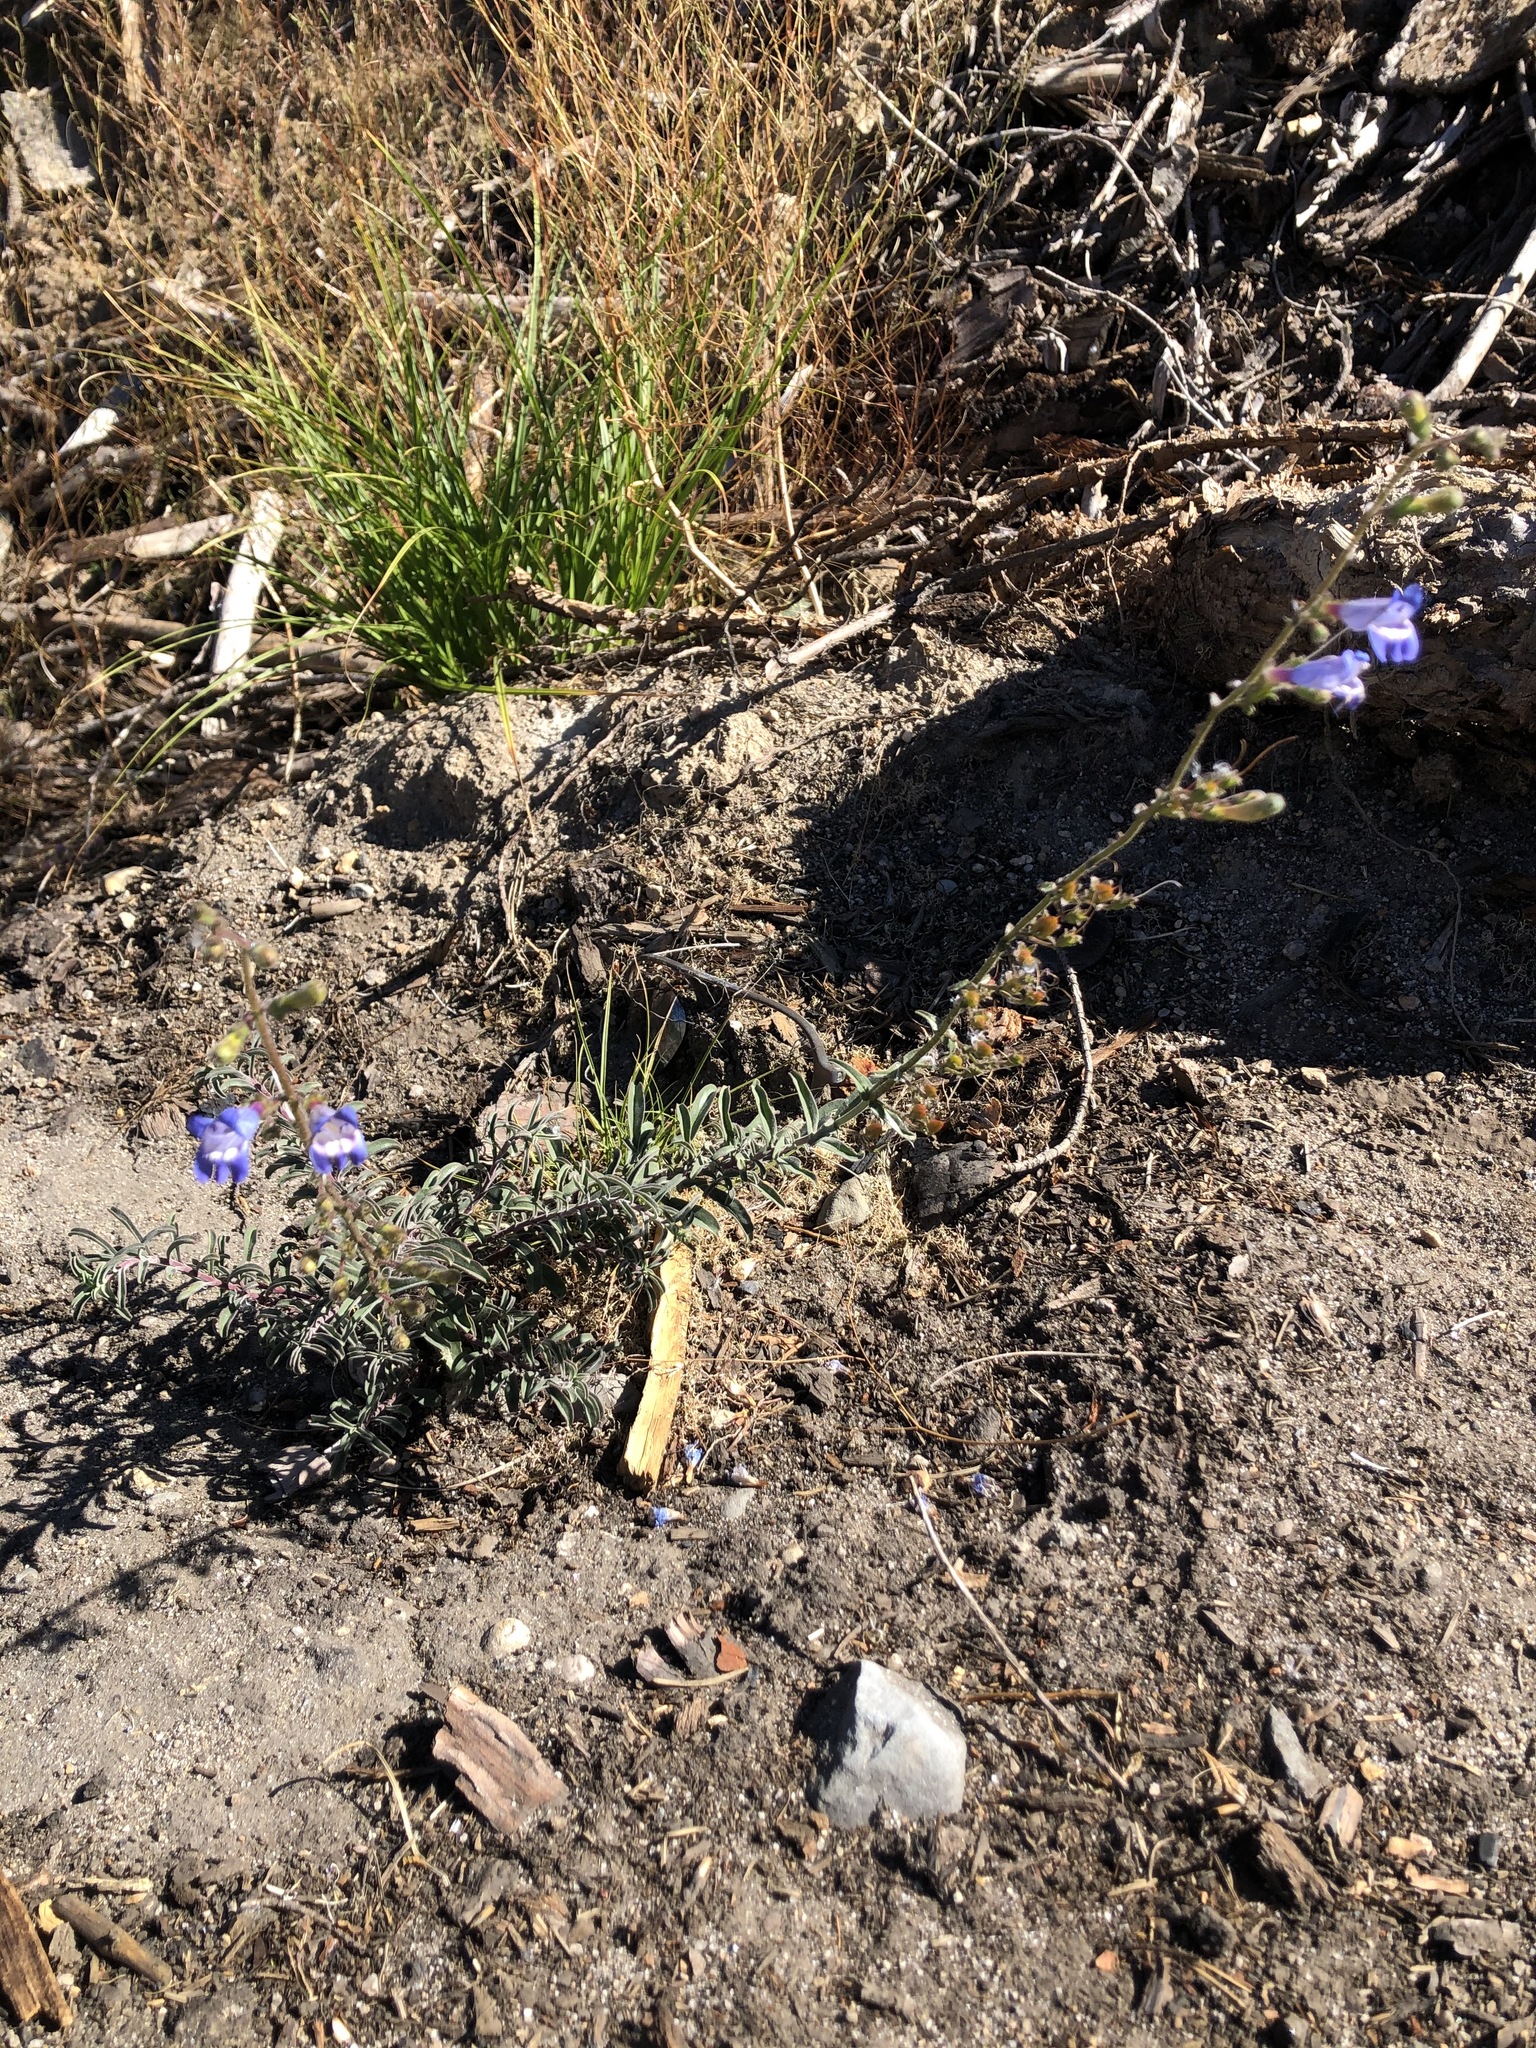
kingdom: Plantae
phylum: Tracheophyta
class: Magnoliopsida
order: Lamiales
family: Plantaginaceae
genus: Penstemon
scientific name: Penstemon speciosus
